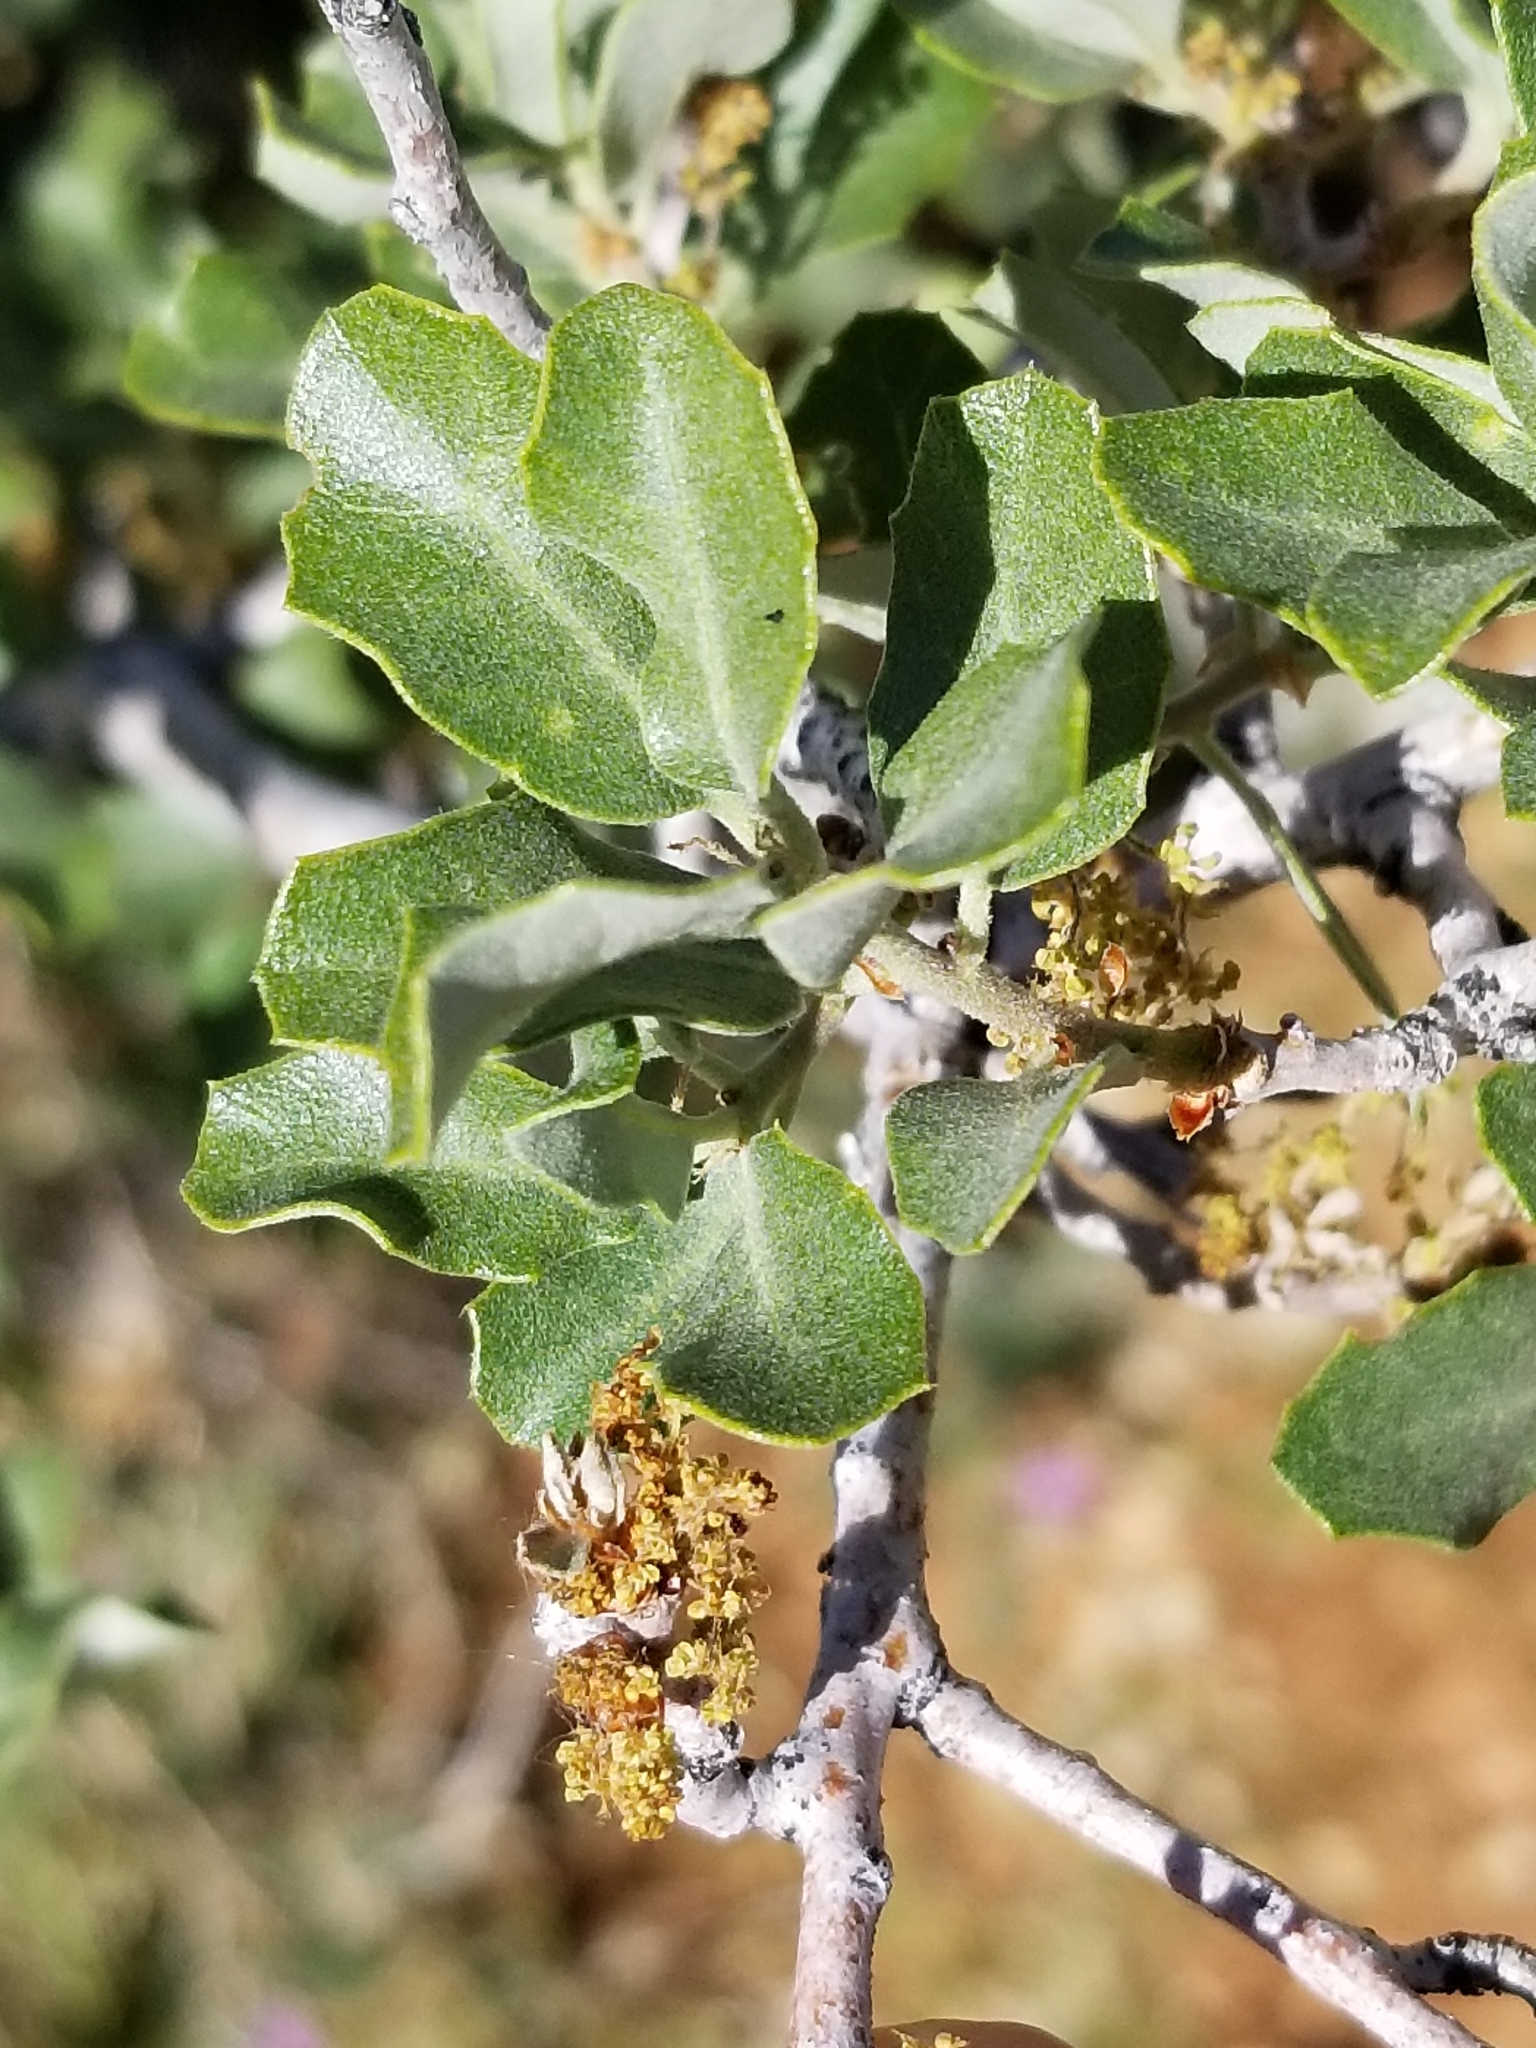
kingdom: Plantae
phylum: Tracheophyta
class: Magnoliopsida
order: Fagales
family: Fagaceae
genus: Quercus
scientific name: Quercus cornelius-mulleri
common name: Muller oak
